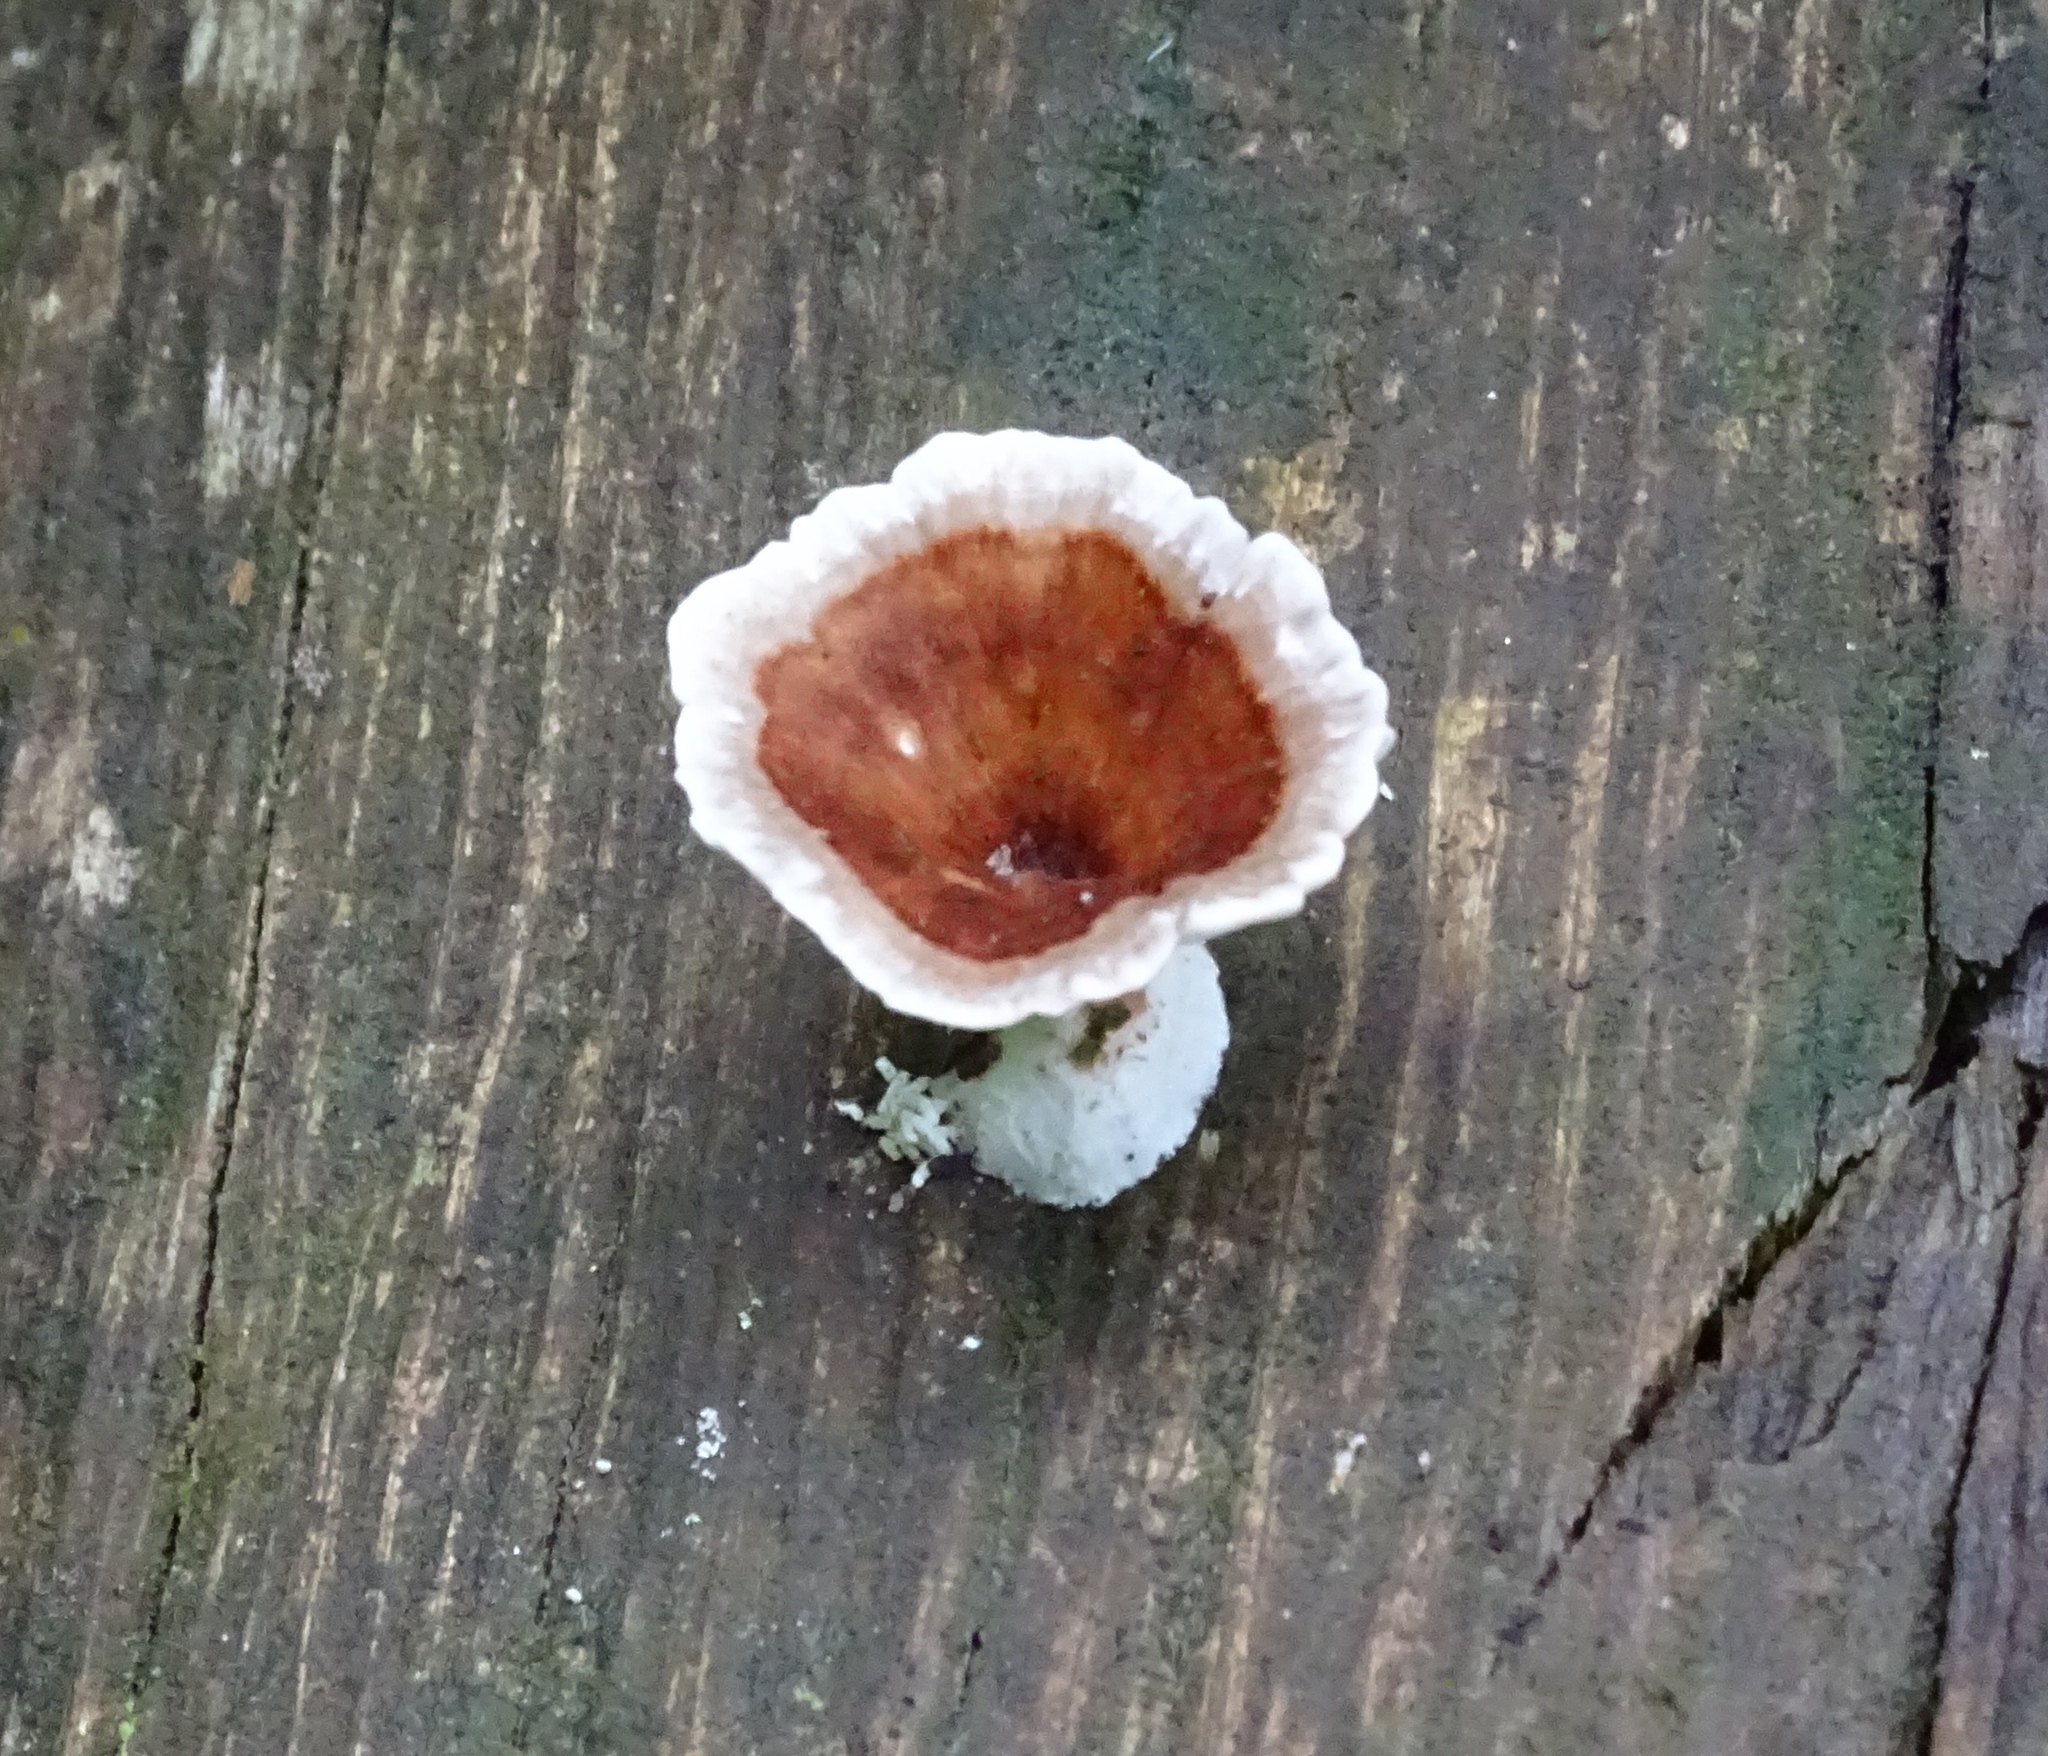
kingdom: Fungi
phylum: Basidiomycota
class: Agaricomycetes
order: Polyporales
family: Polyporaceae
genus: Microporus
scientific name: Microporus xanthopus
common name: Yellow-stemmed micropore
